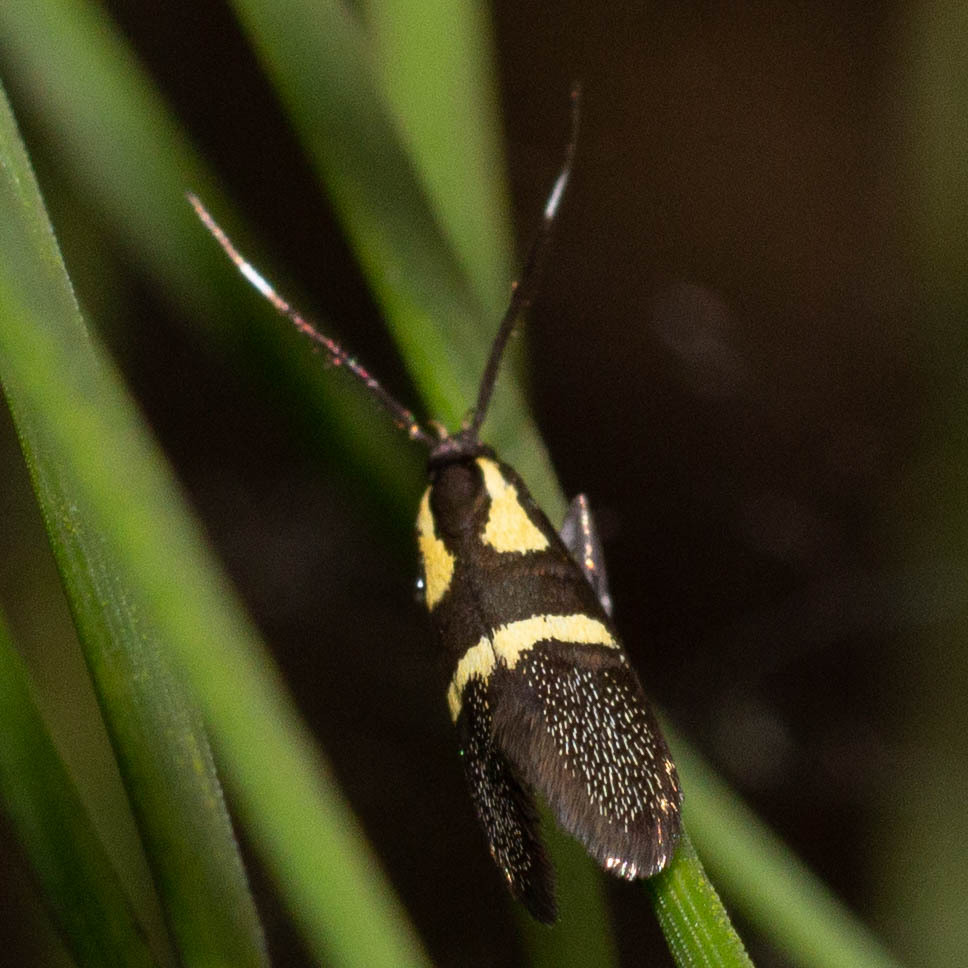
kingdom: Animalia
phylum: Arthropoda
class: Insecta
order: Lepidoptera
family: Oecophoridae
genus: Dafa
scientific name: Dafa oliviella
